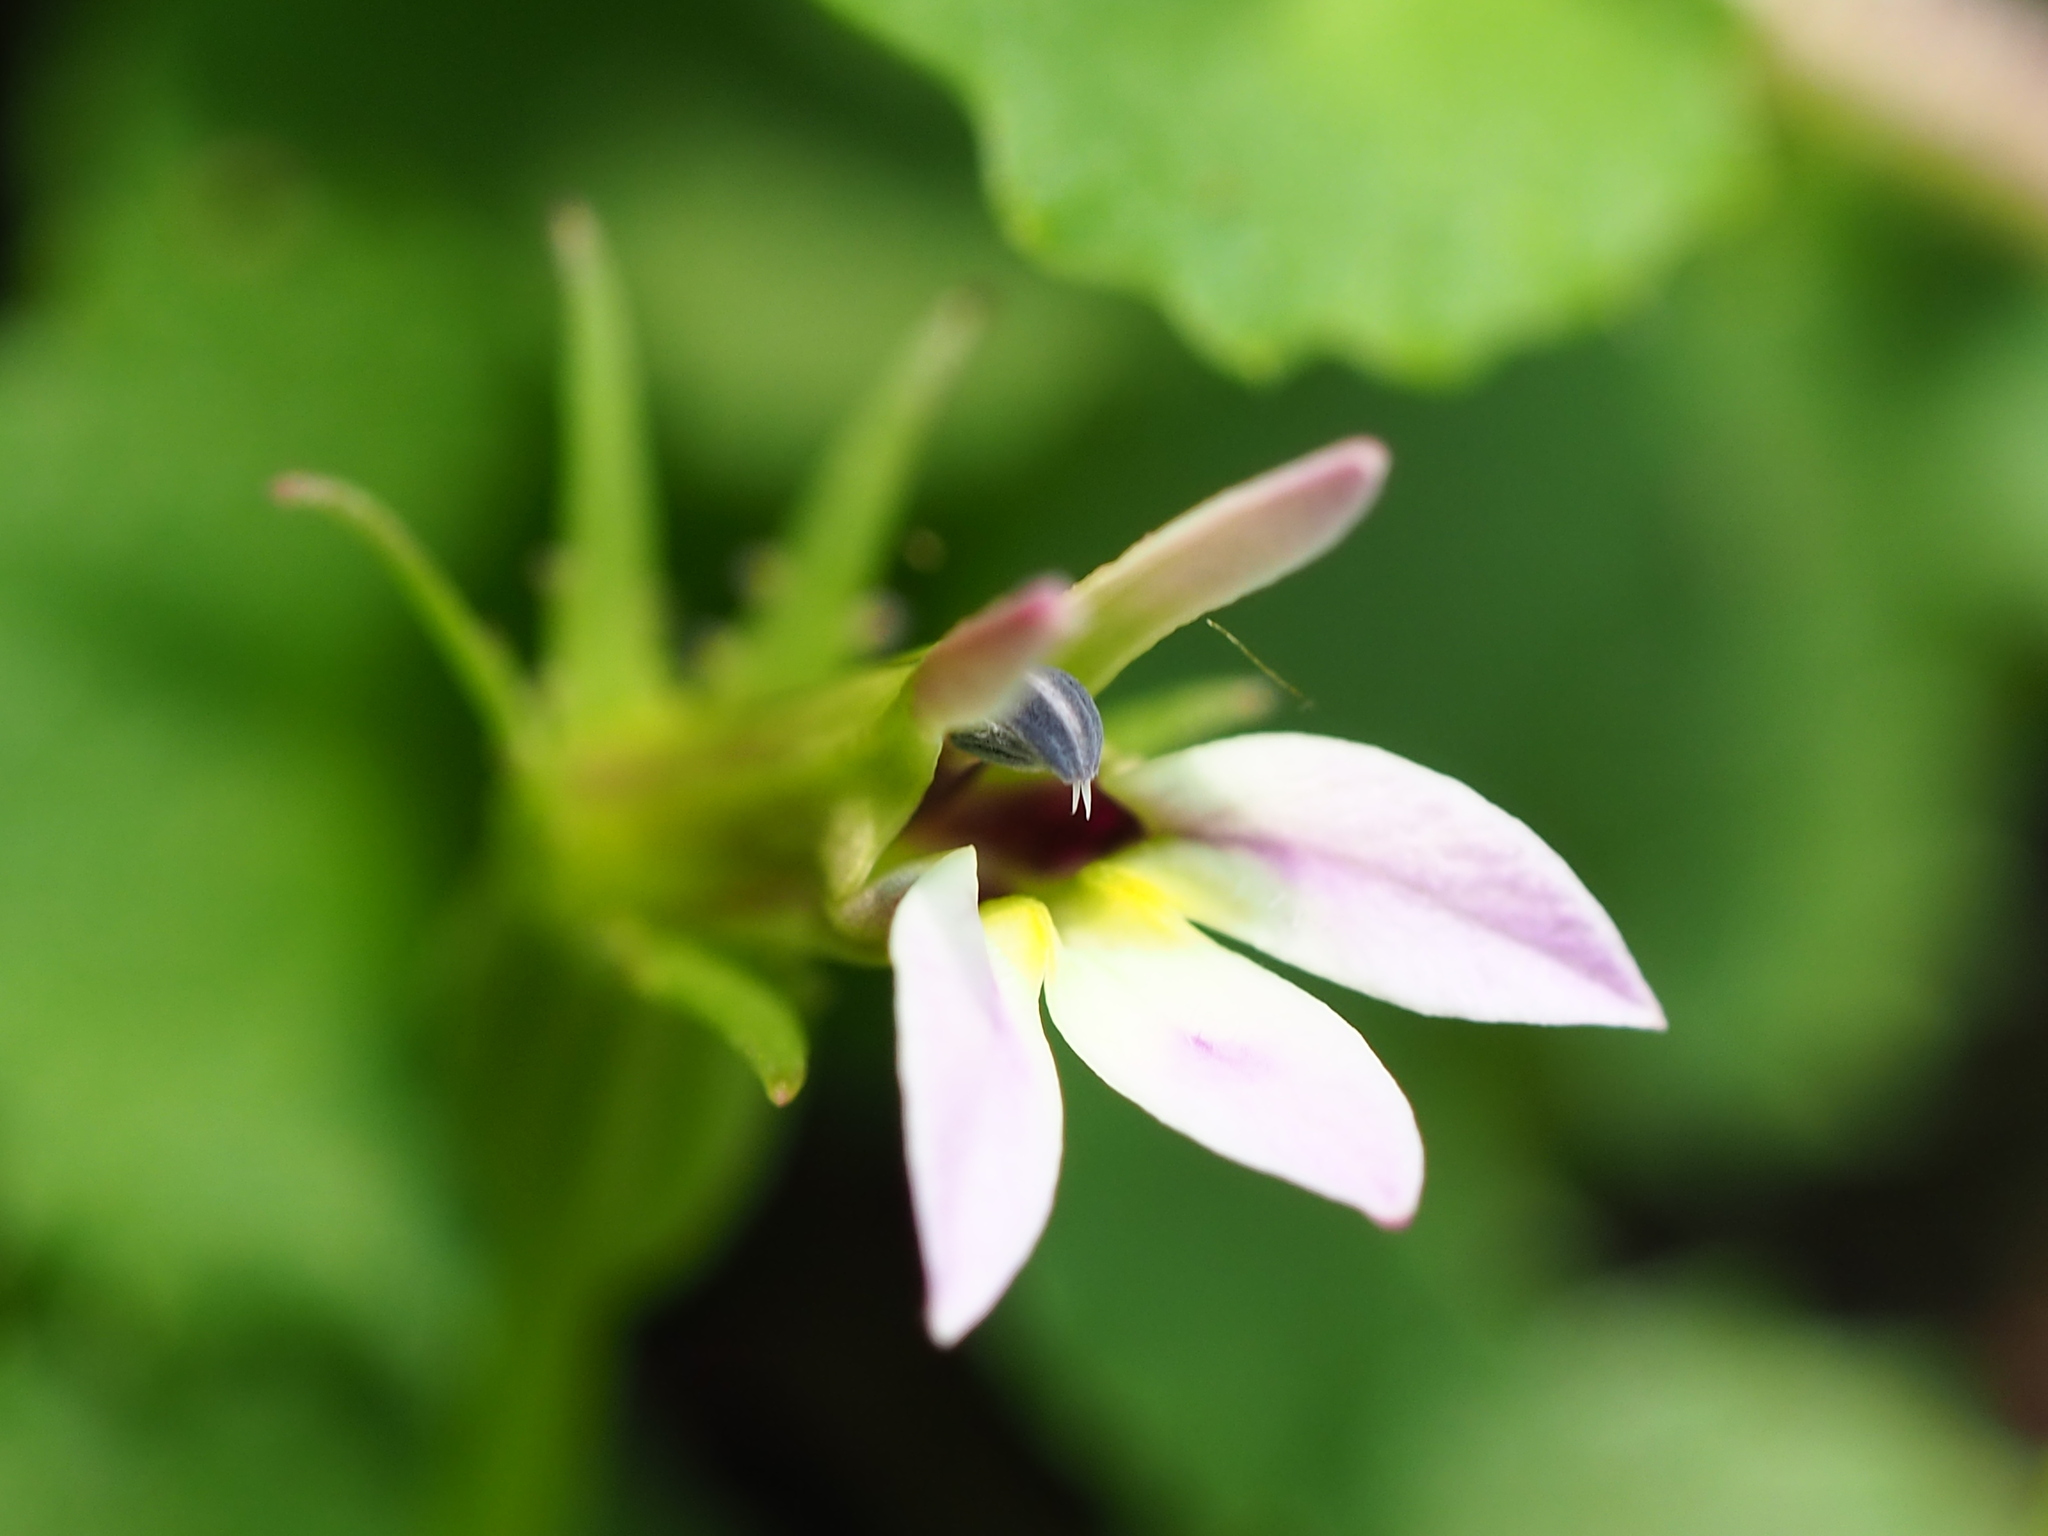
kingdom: Plantae
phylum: Tracheophyta
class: Magnoliopsida
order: Asterales
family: Campanulaceae
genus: Lobelia
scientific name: Lobelia nummularia
